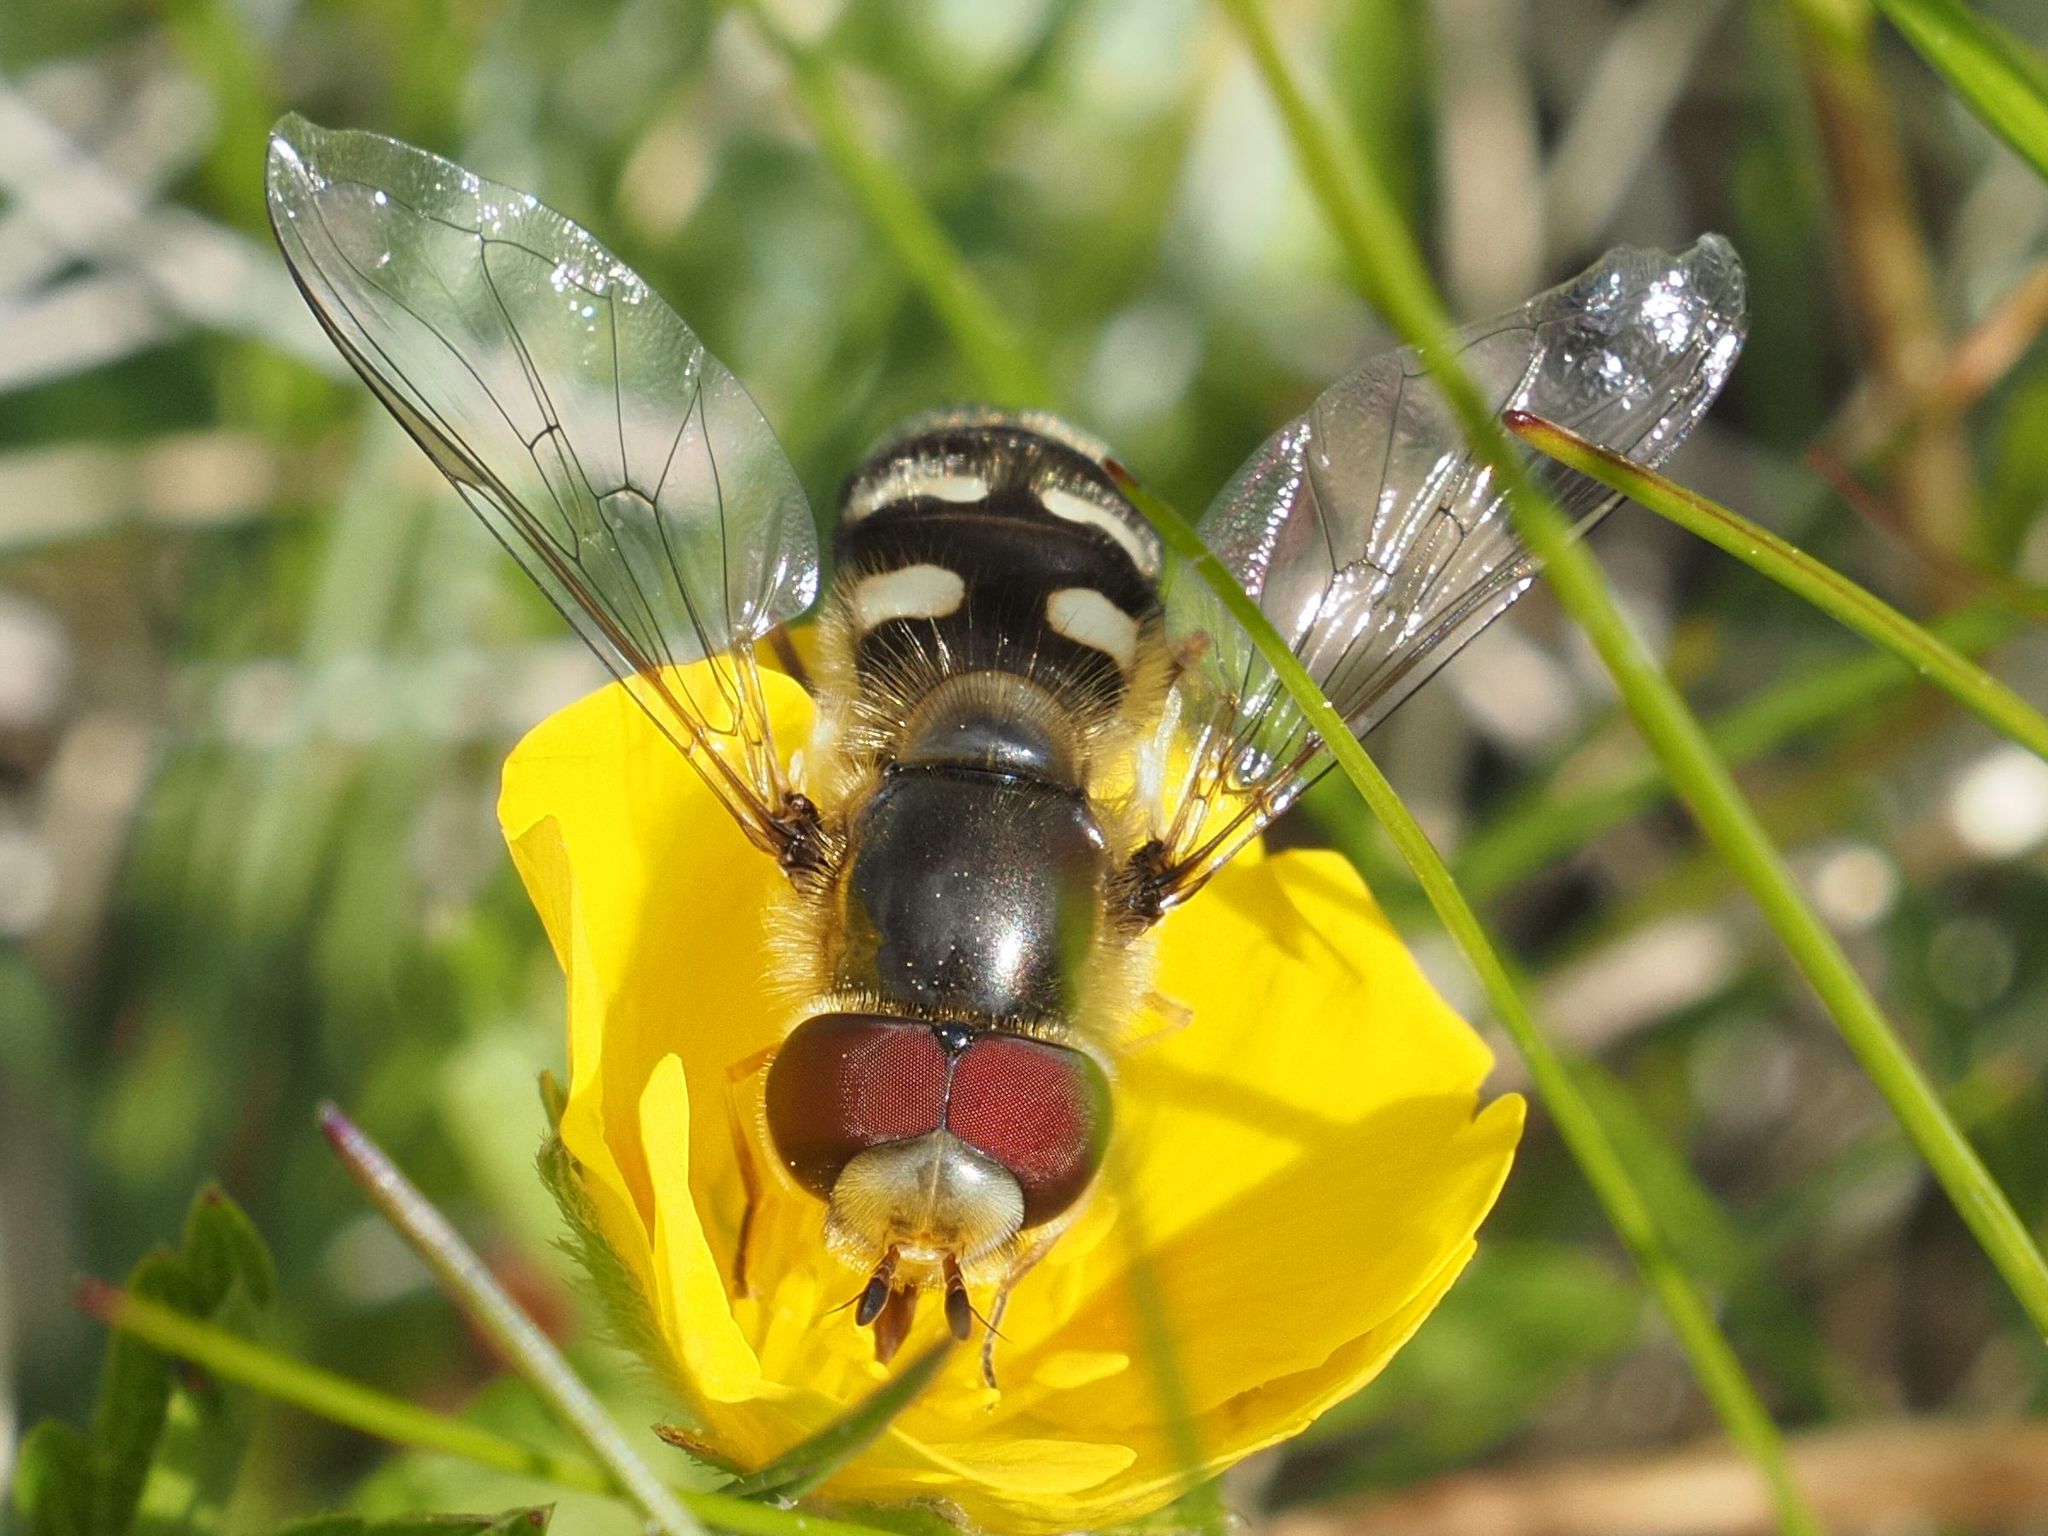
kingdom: Animalia
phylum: Arthropoda
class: Insecta
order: Diptera
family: Syrphidae
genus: Scaeva
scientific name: Scaeva pyrastri
